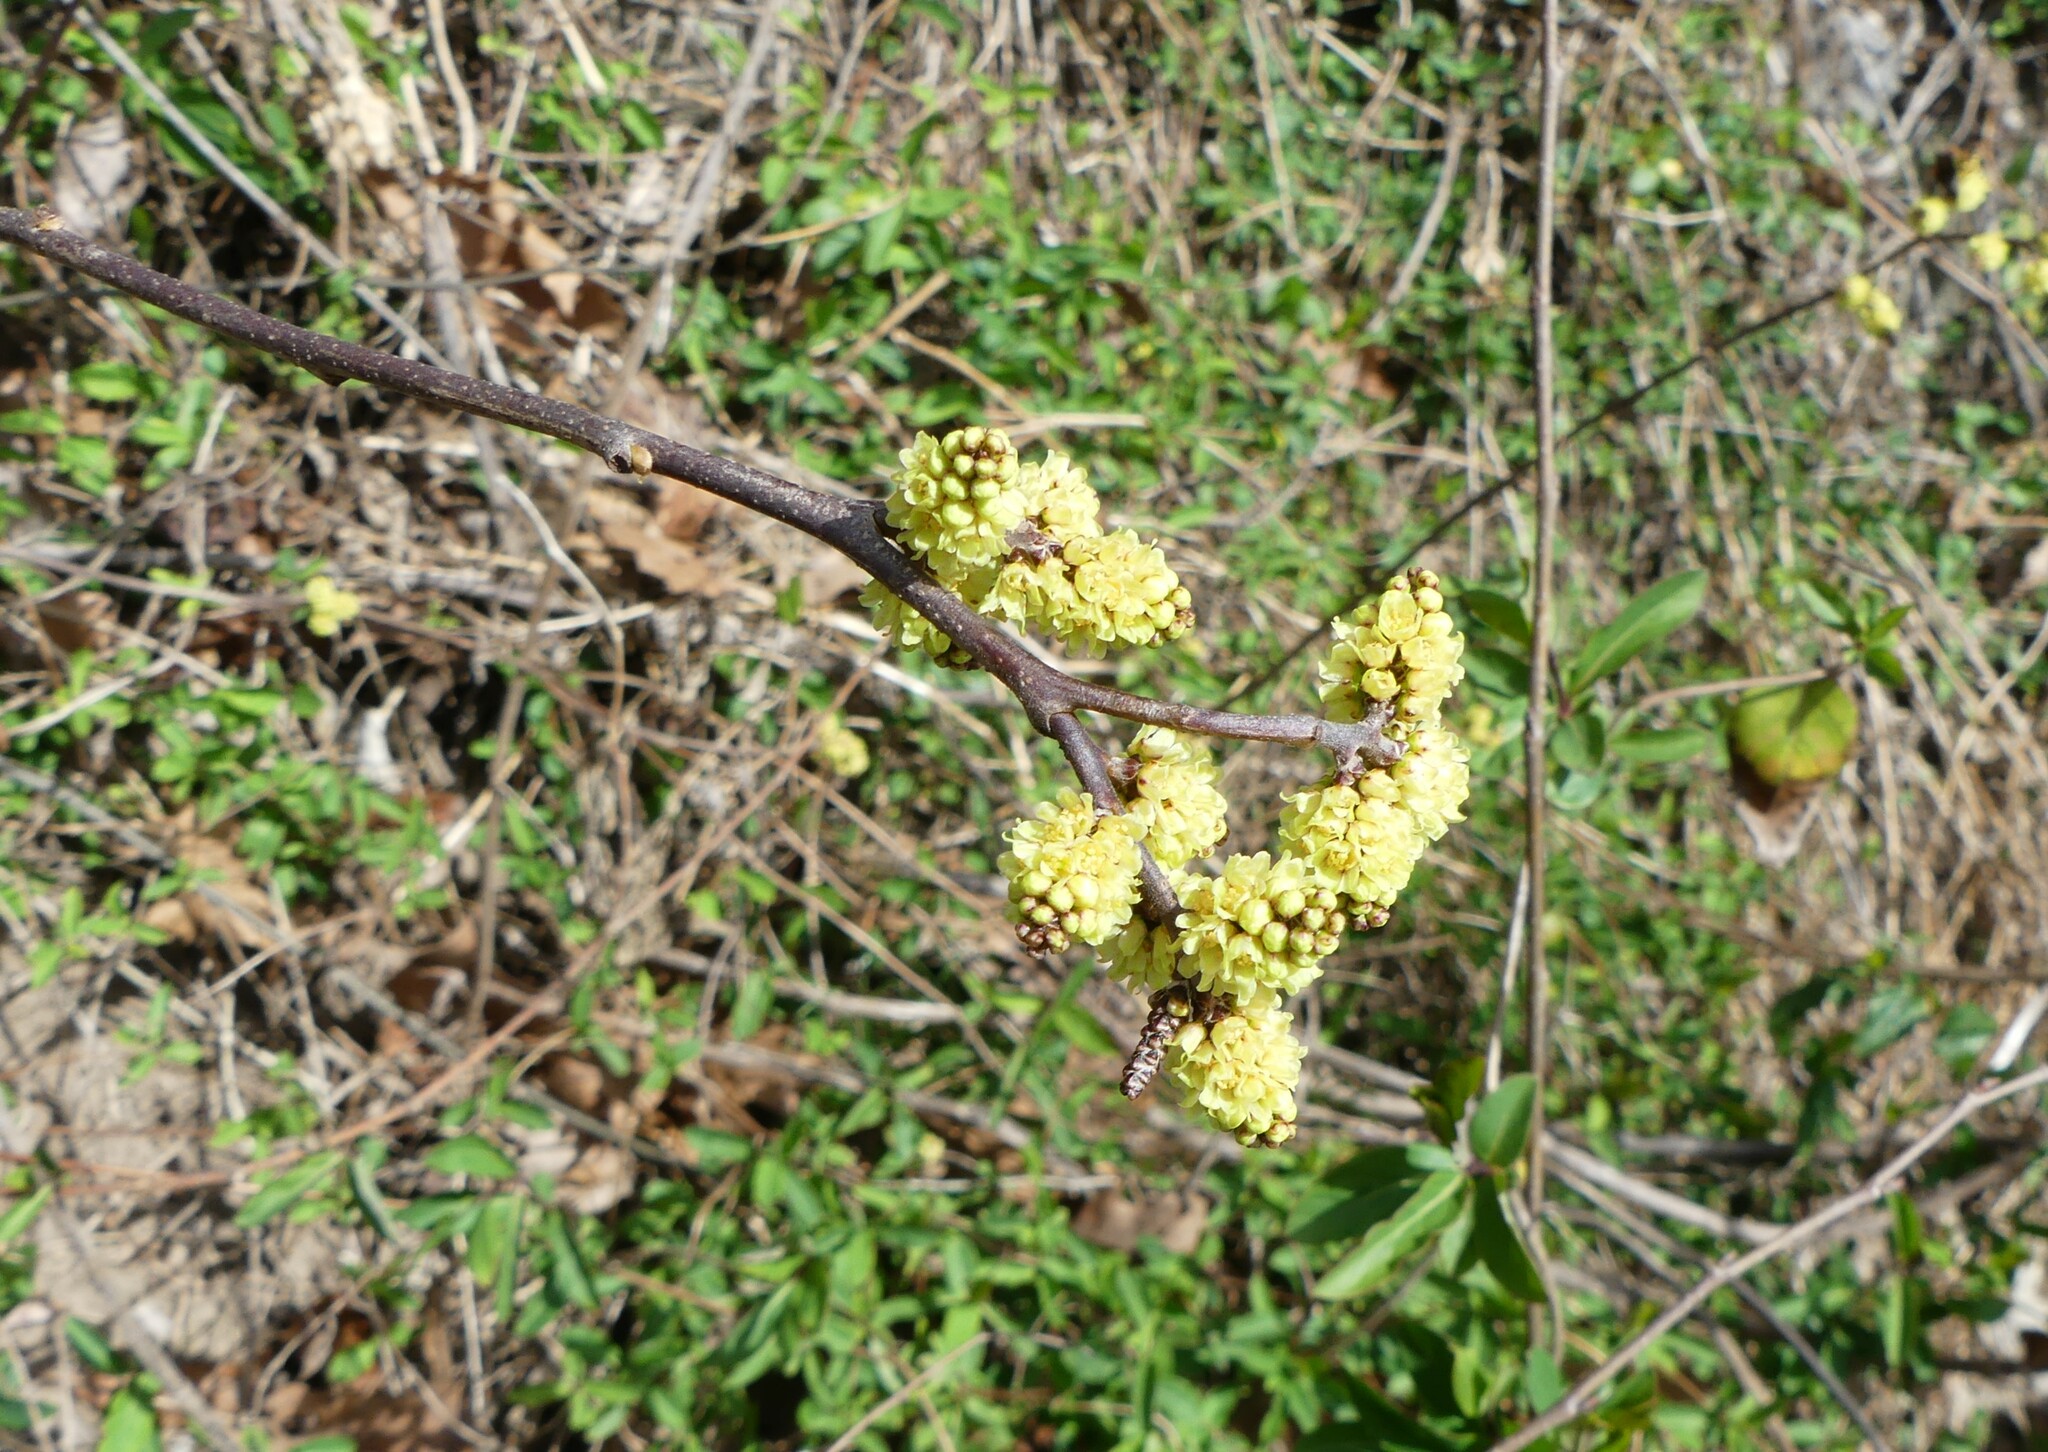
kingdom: Plantae
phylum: Tracheophyta
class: Magnoliopsida
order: Sapindales
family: Anacardiaceae
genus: Rhus
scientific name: Rhus aromatica
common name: Aromatic sumac
